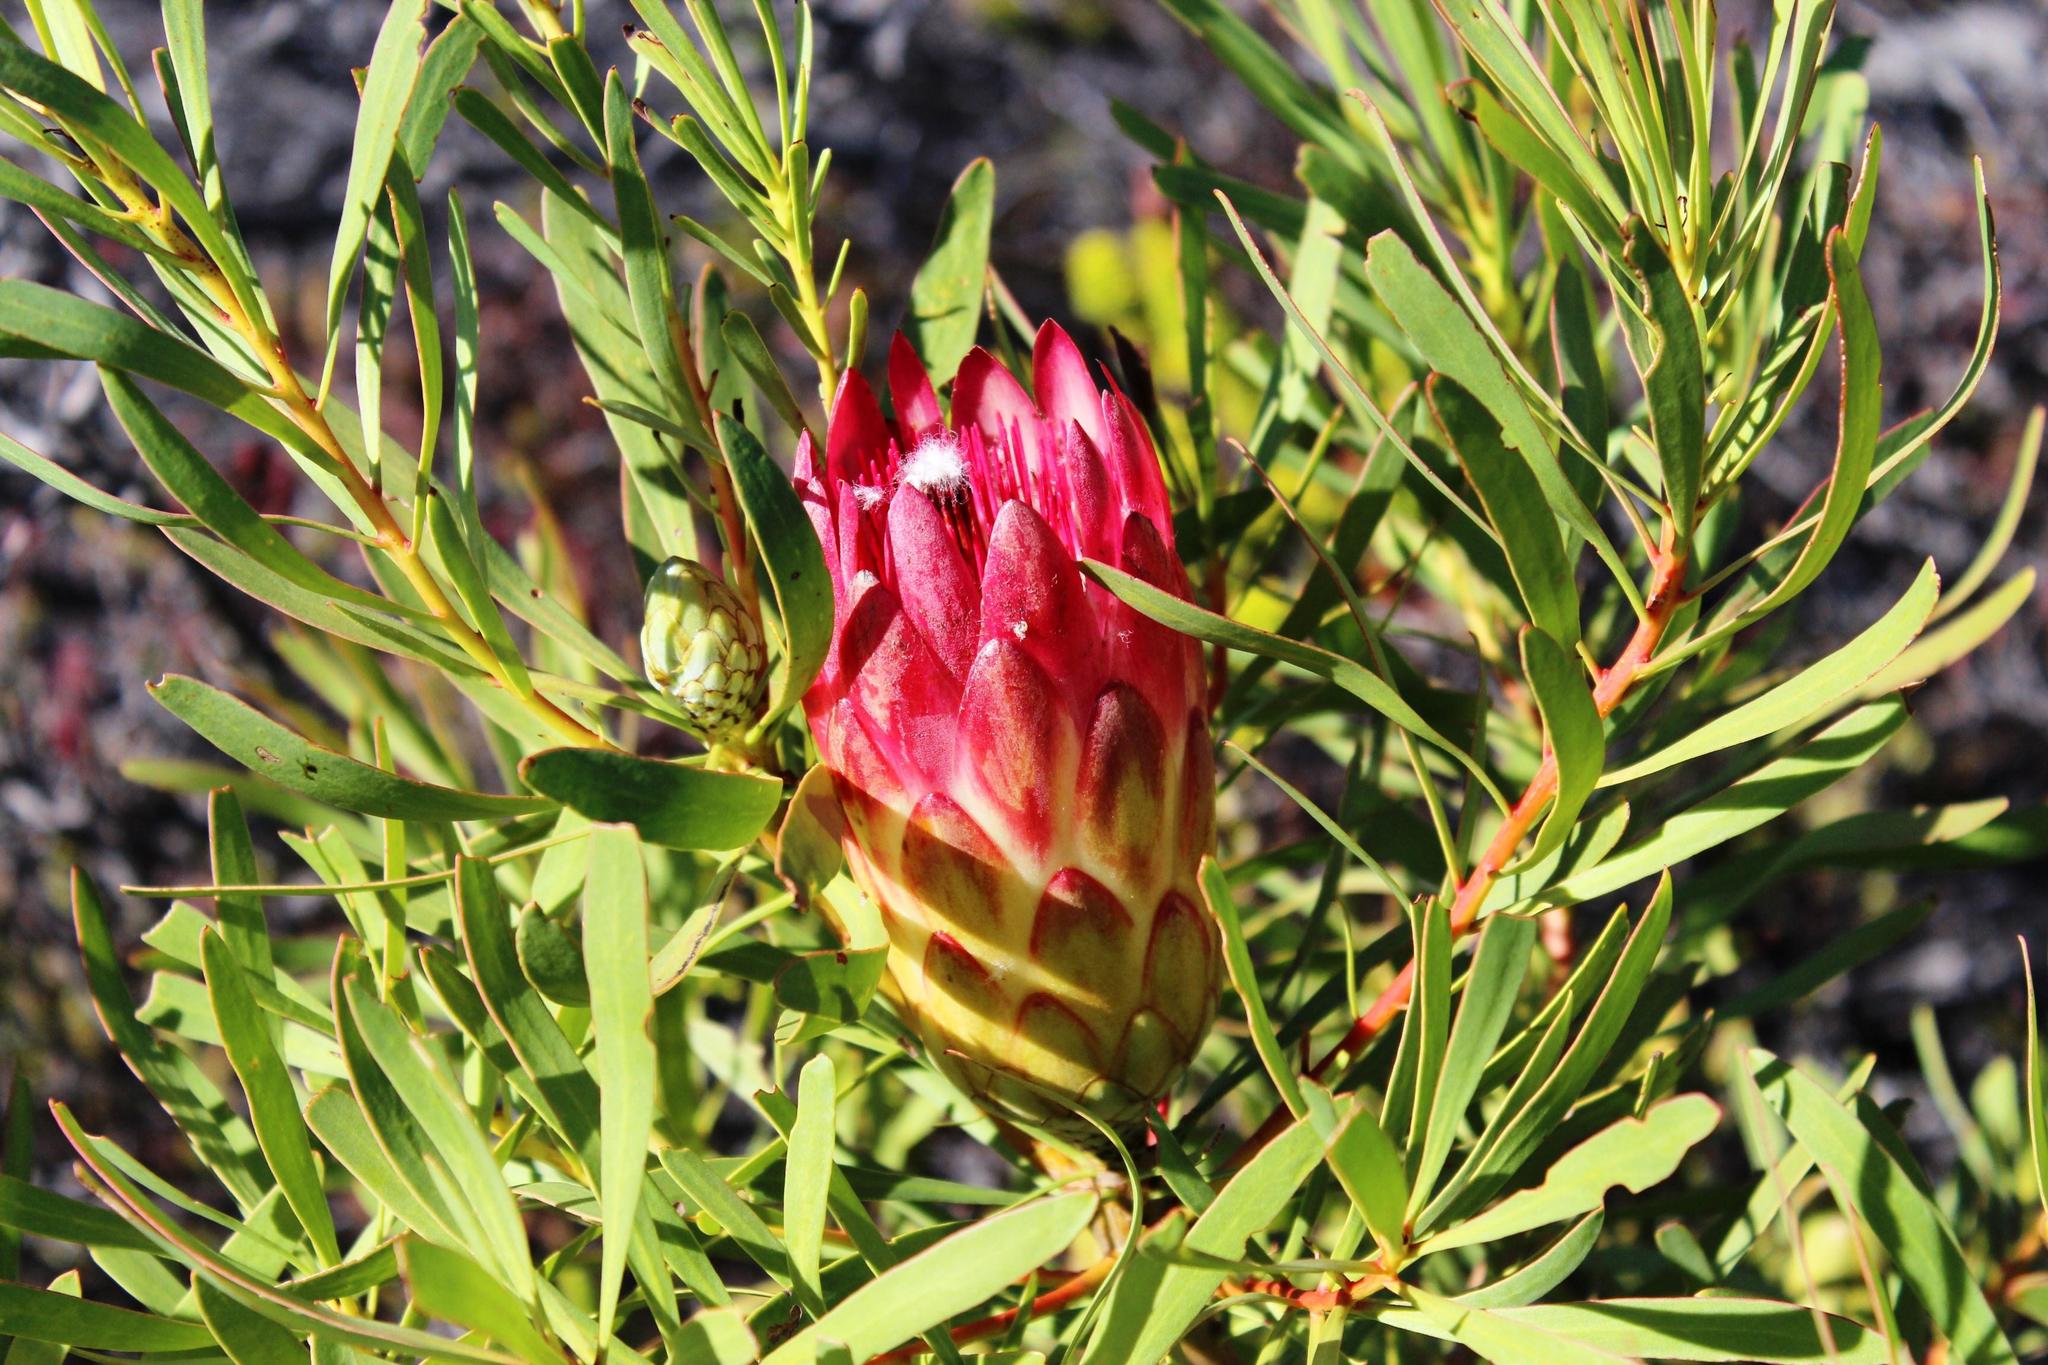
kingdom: Plantae
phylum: Tracheophyta
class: Magnoliopsida
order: Proteales
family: Proteaceae
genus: Protea
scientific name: Protea repens
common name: Sugarbush
